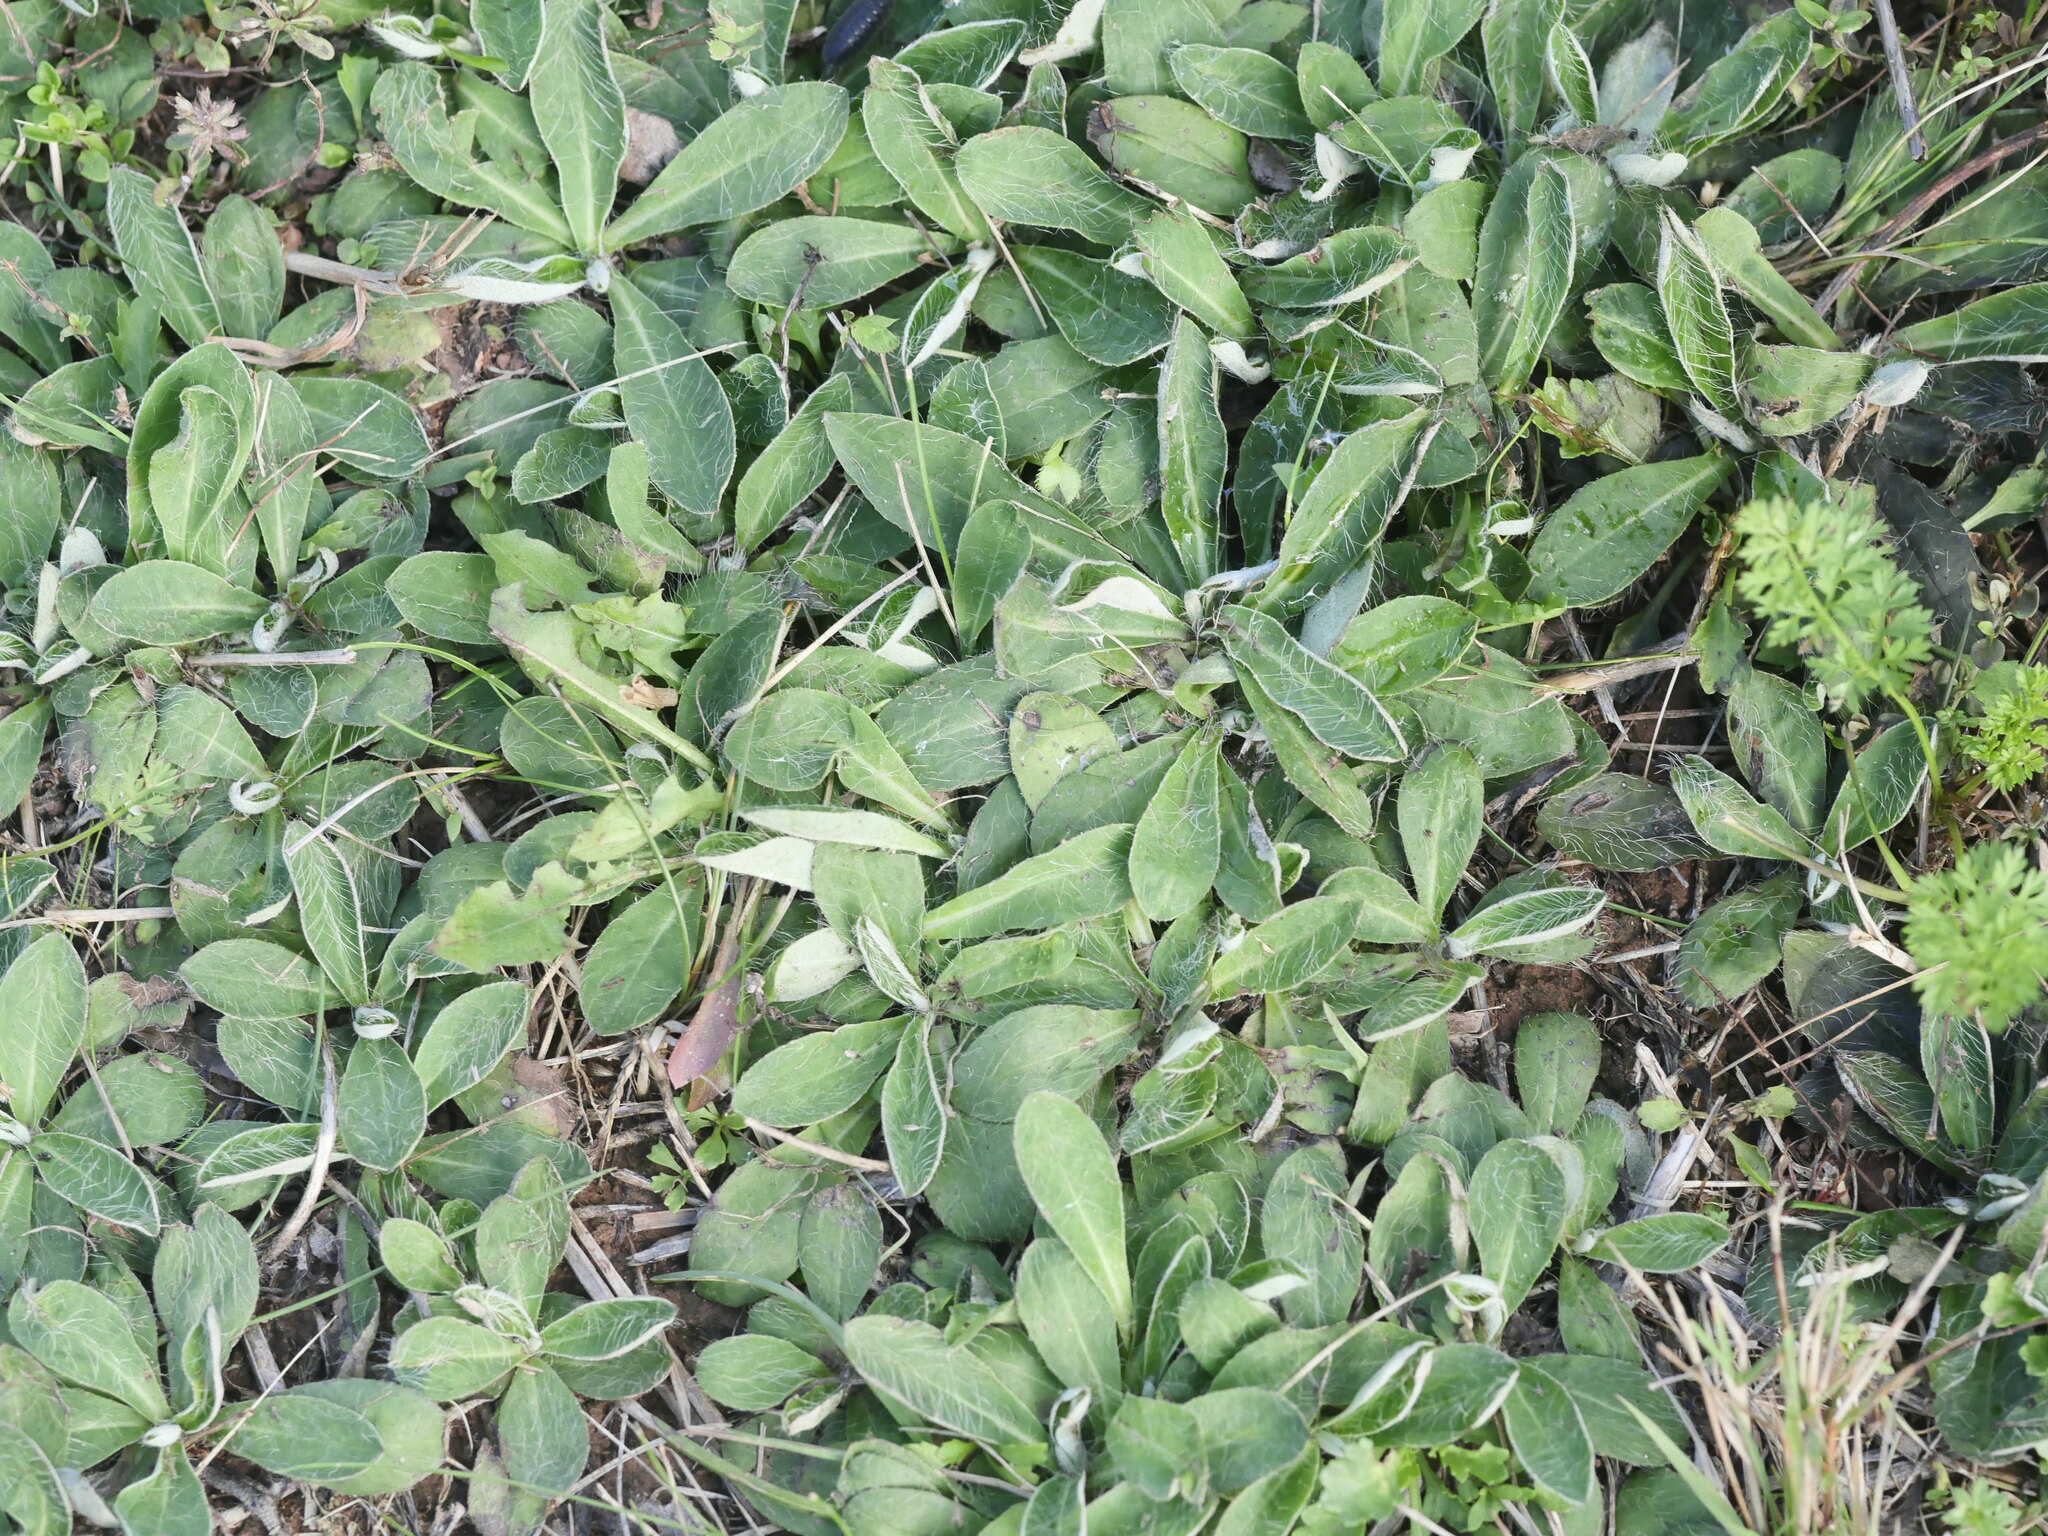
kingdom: Plantae
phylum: Tracheophyta
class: Magnoliopsida
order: Asterales
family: Asteraceae
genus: Pilosella
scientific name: Pilosella officinarum
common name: Mouse-ear hawkweed
